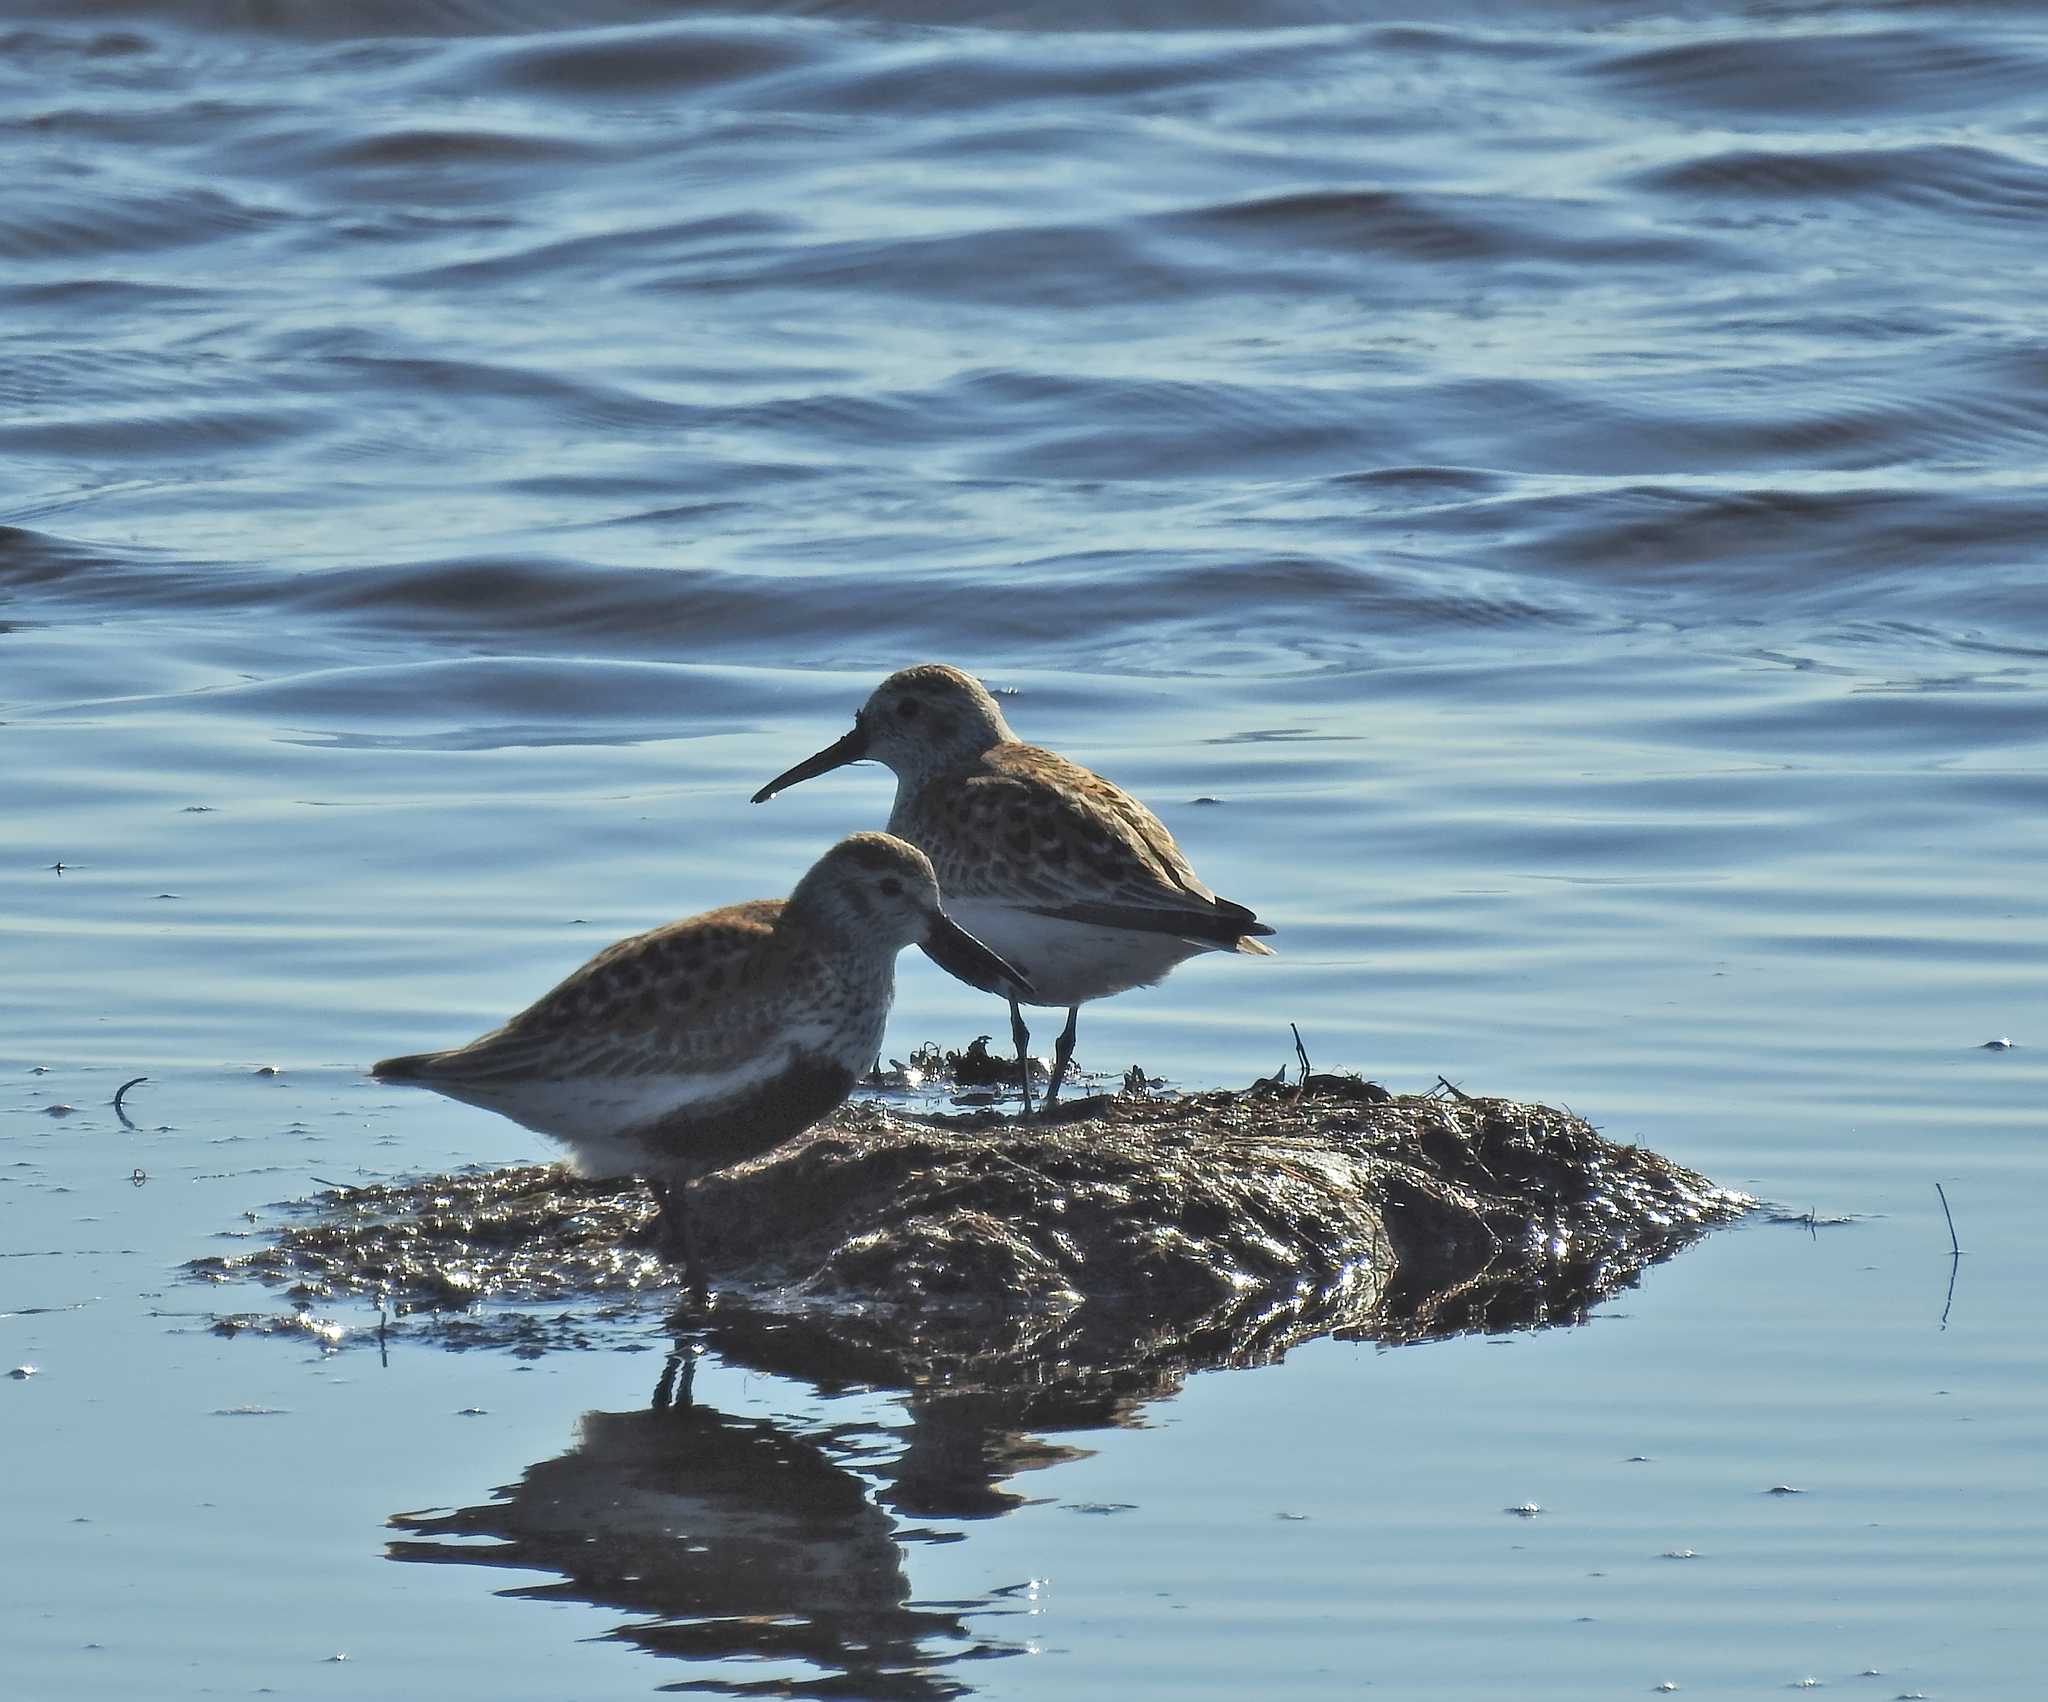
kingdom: Animalia
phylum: Chordata
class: Aves
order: Charadriiformes
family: Scolopacidae
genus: Calidris
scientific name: Calidris alpina
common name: Dunlin
